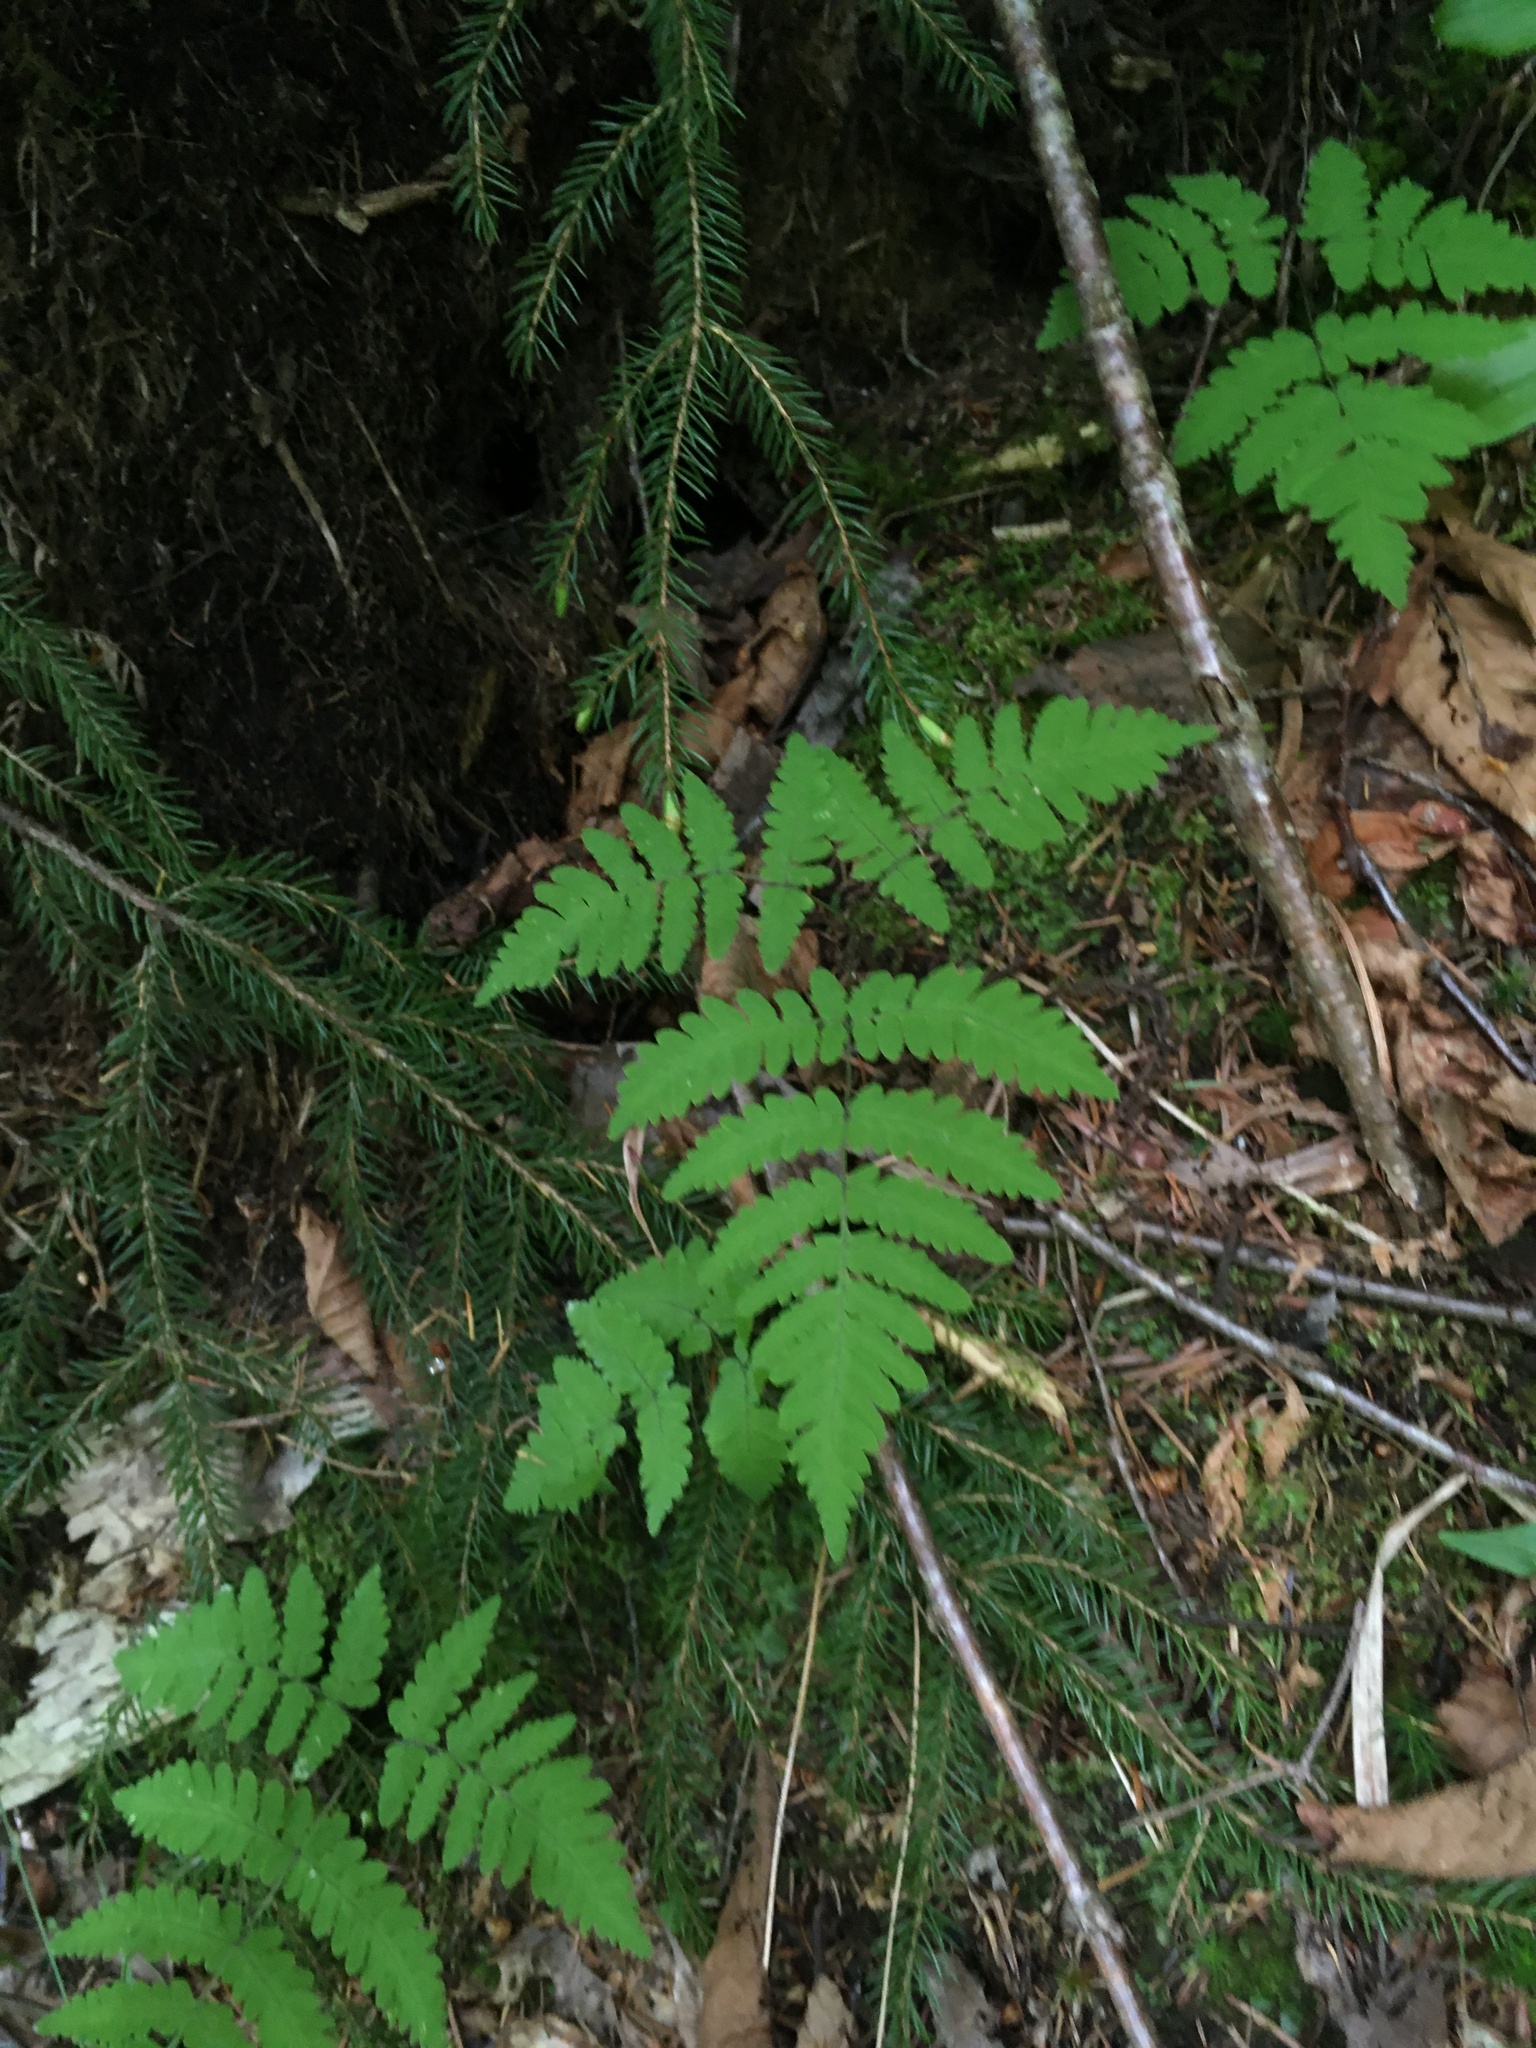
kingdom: Plantae
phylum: Tracheophyta
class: Polypodiopsida
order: Polypodiales
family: Cystopteridaceae
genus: Gymnocarpium
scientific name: Gymnocarpium dryopteris
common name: Oak fern
